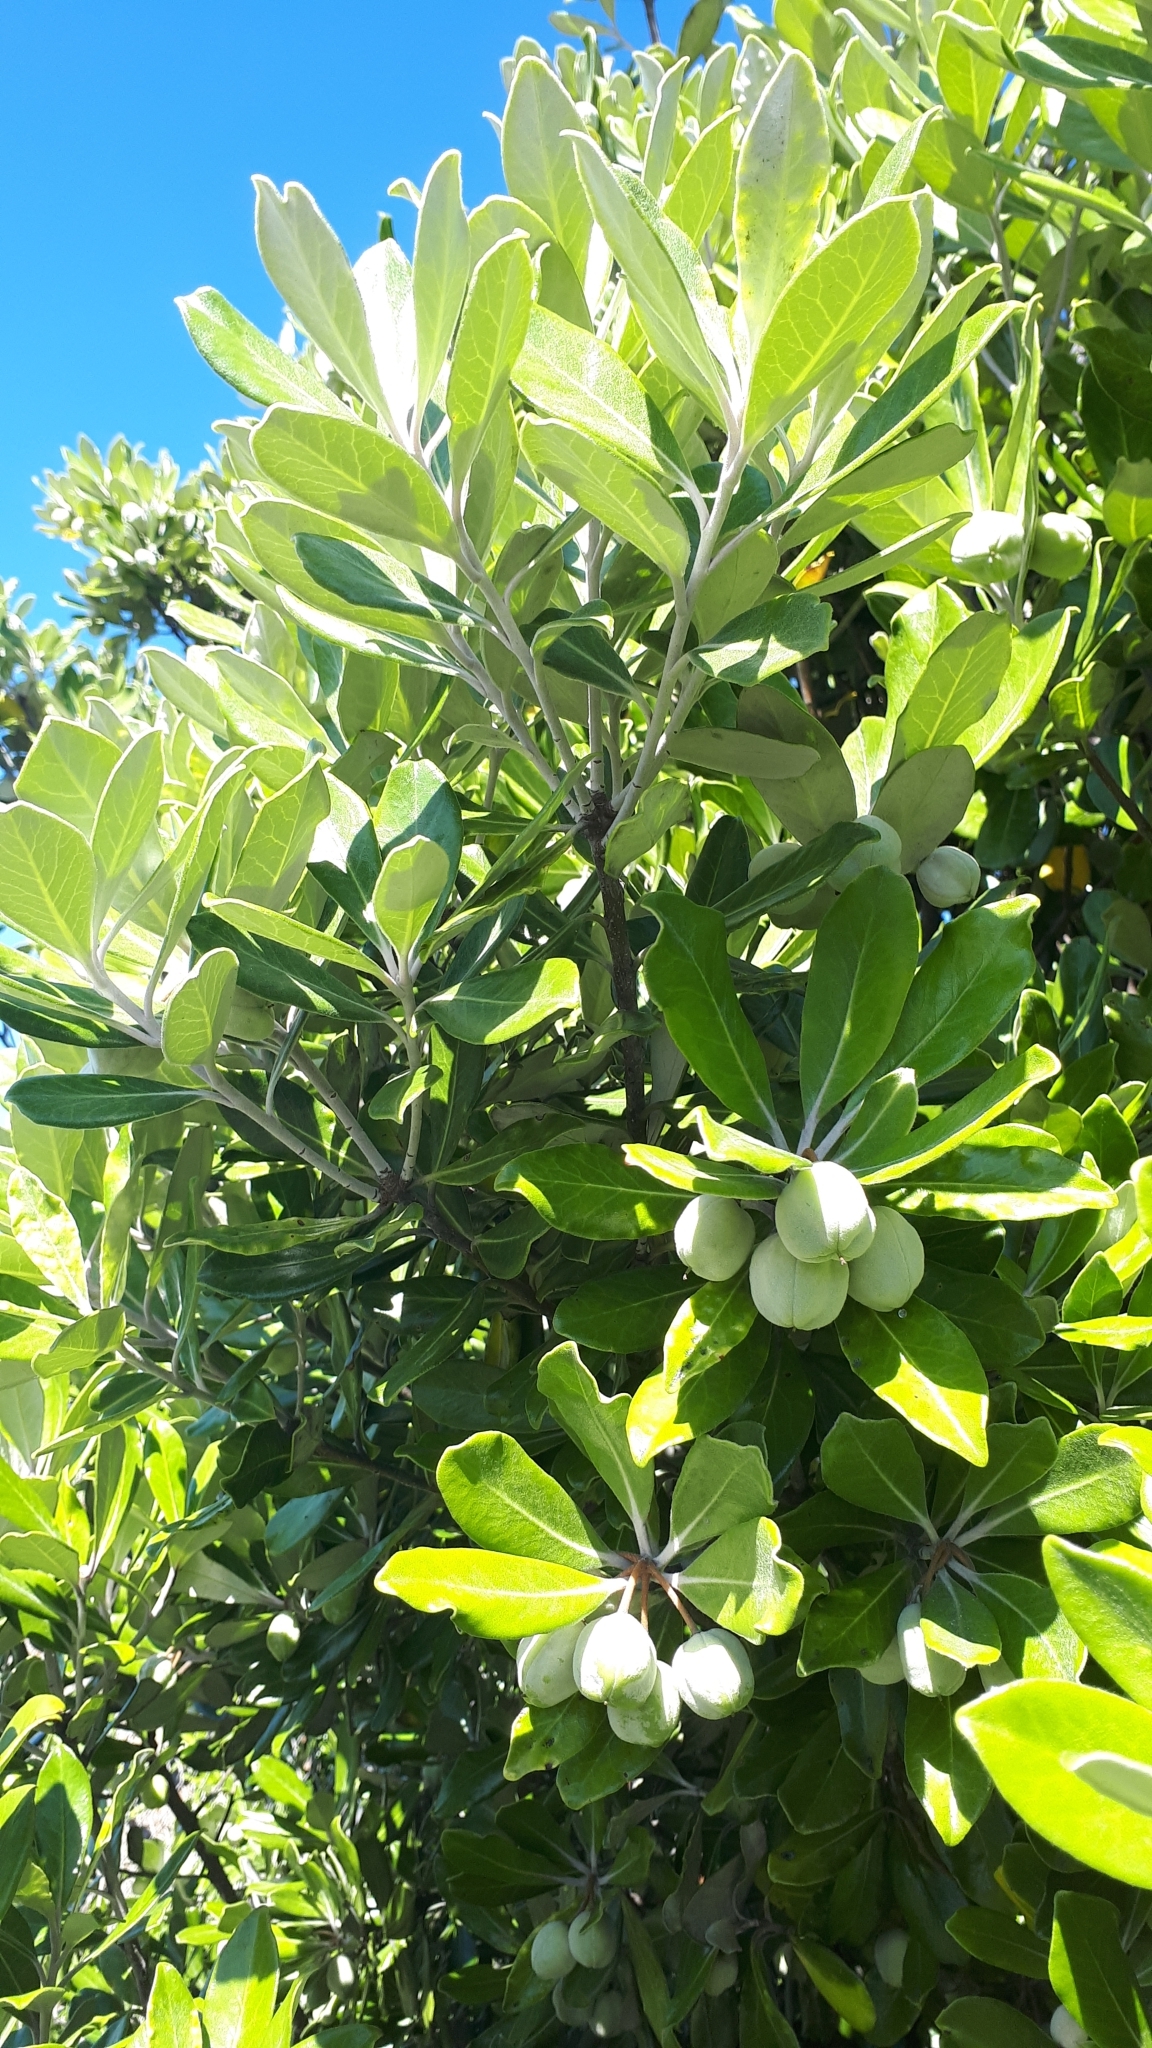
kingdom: Plantae
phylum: Tracheophyta
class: Magnoliopsida
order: Apiales
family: Pittosporaceae
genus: Pittosporum
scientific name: Pittosporum crassifolium
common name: Karo
